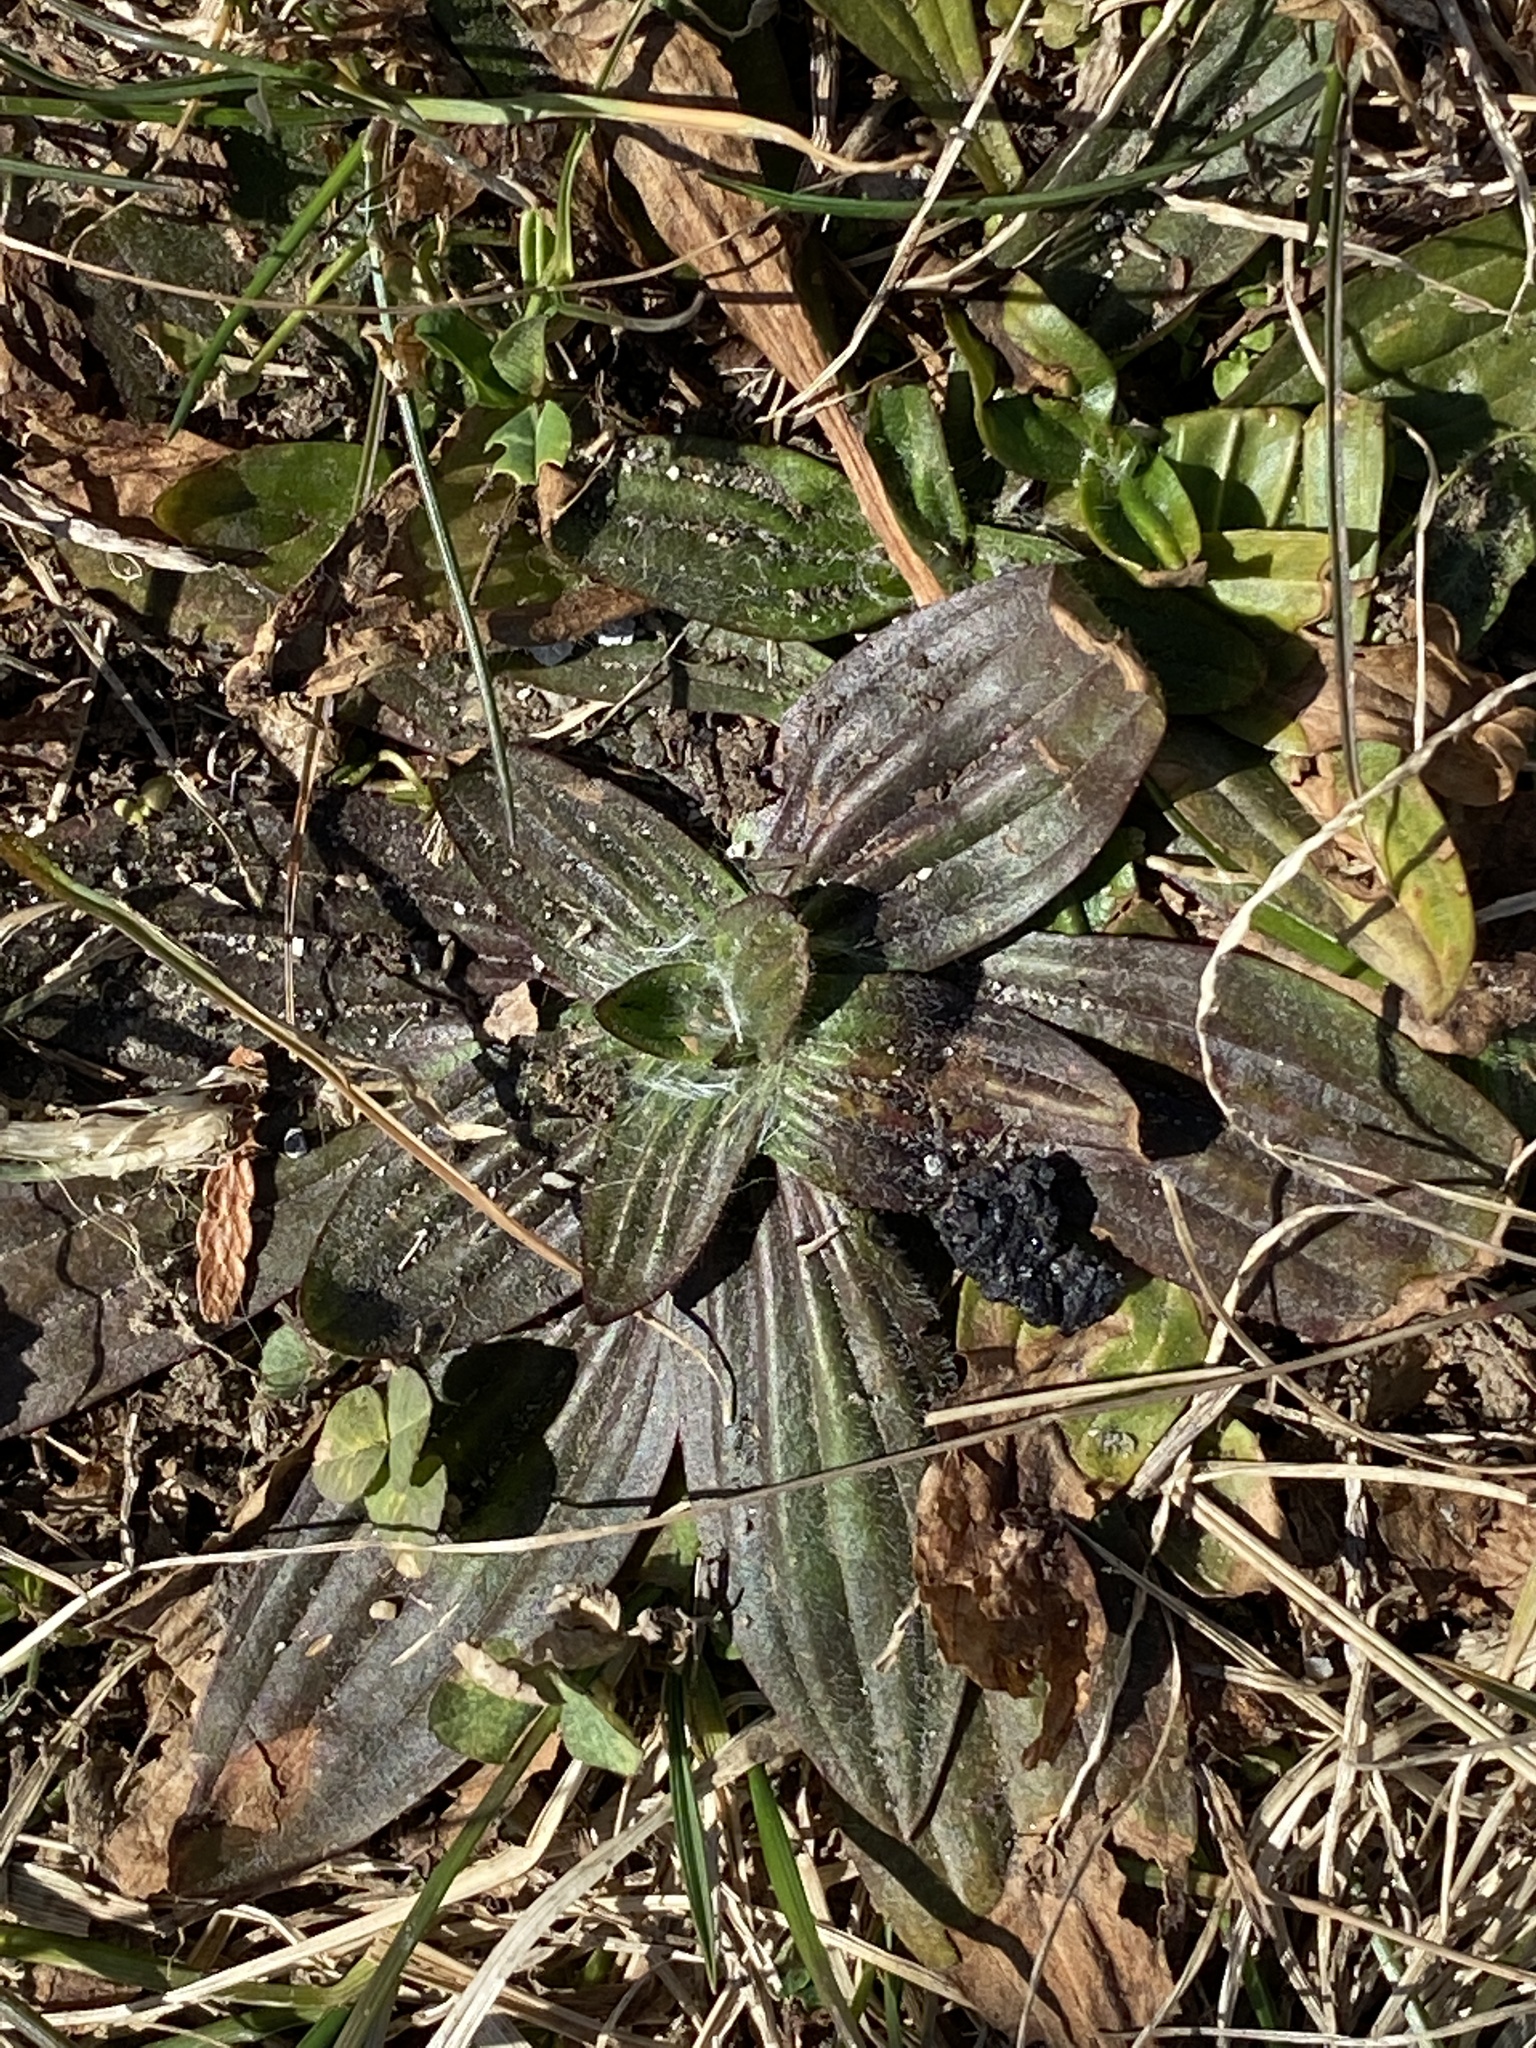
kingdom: Plantae
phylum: Tracheophyta
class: Magnoliopsida
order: Lamiales
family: Plantaginaceae
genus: Plantago
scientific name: Plantago lanceolata
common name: Ribwort plantain
